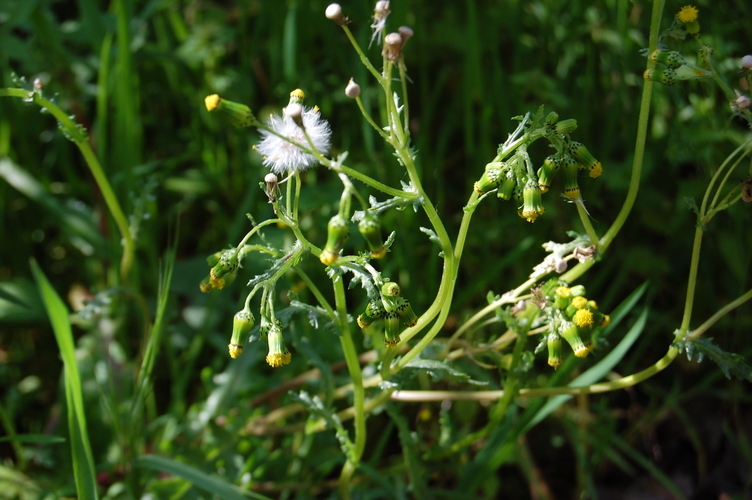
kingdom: Plantae
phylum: Tracheophyta
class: Magnoliopsida
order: Asterales
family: Asteraceae
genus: Senecio
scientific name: Senecio vulgaris
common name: Old-man-in-the-spring
